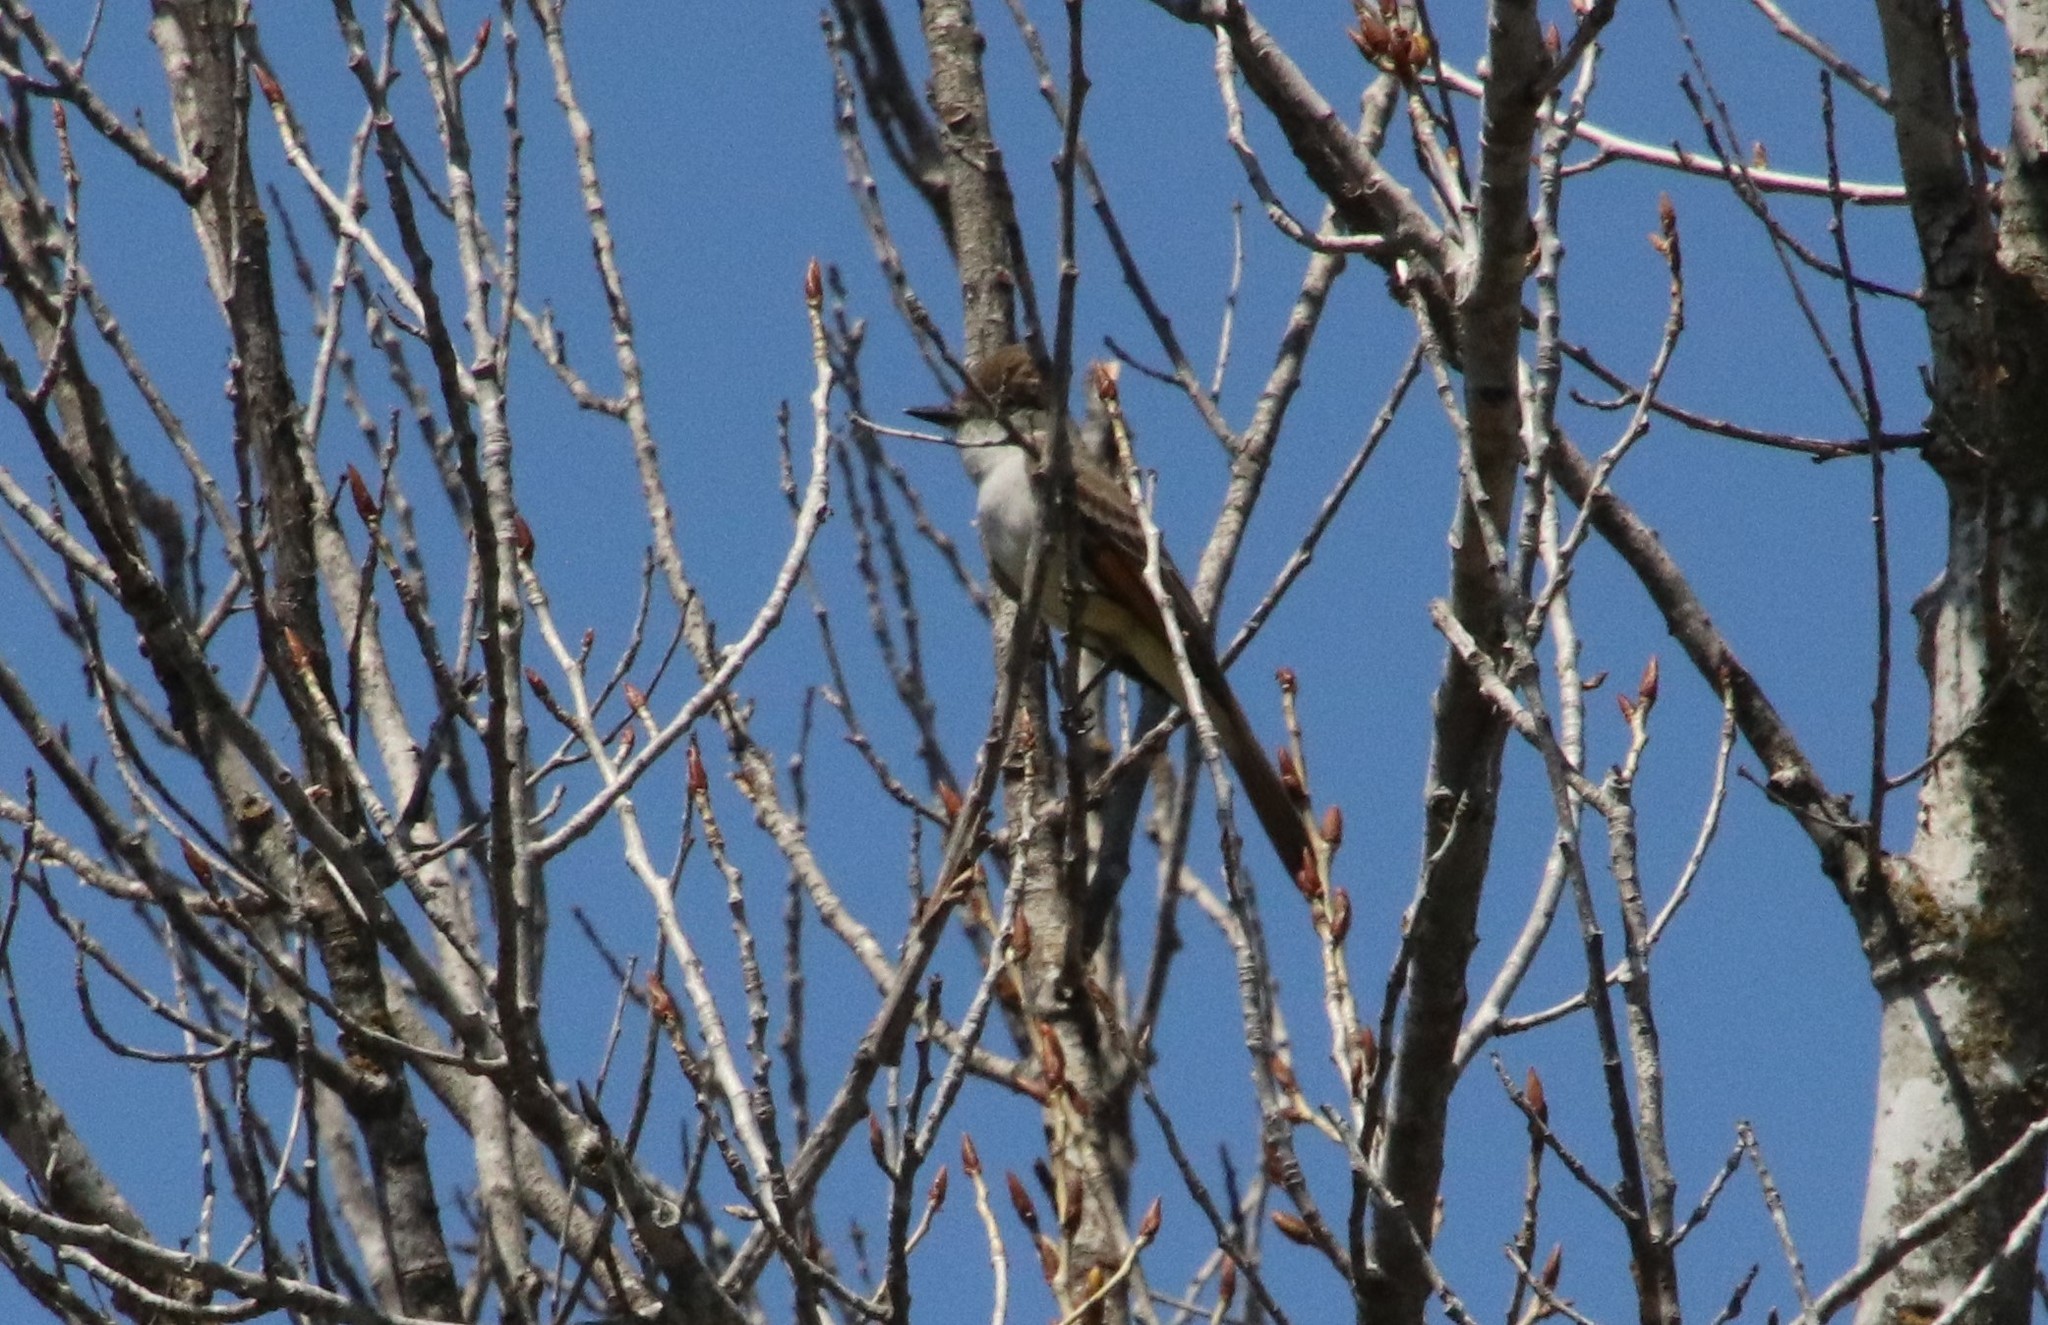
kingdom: Animalia
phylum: Chordata
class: Aves
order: Passeriformes
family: Tyrannidae
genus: Myiarchus
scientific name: Myiarchus cinerascens
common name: Ash-throated flycatcher
